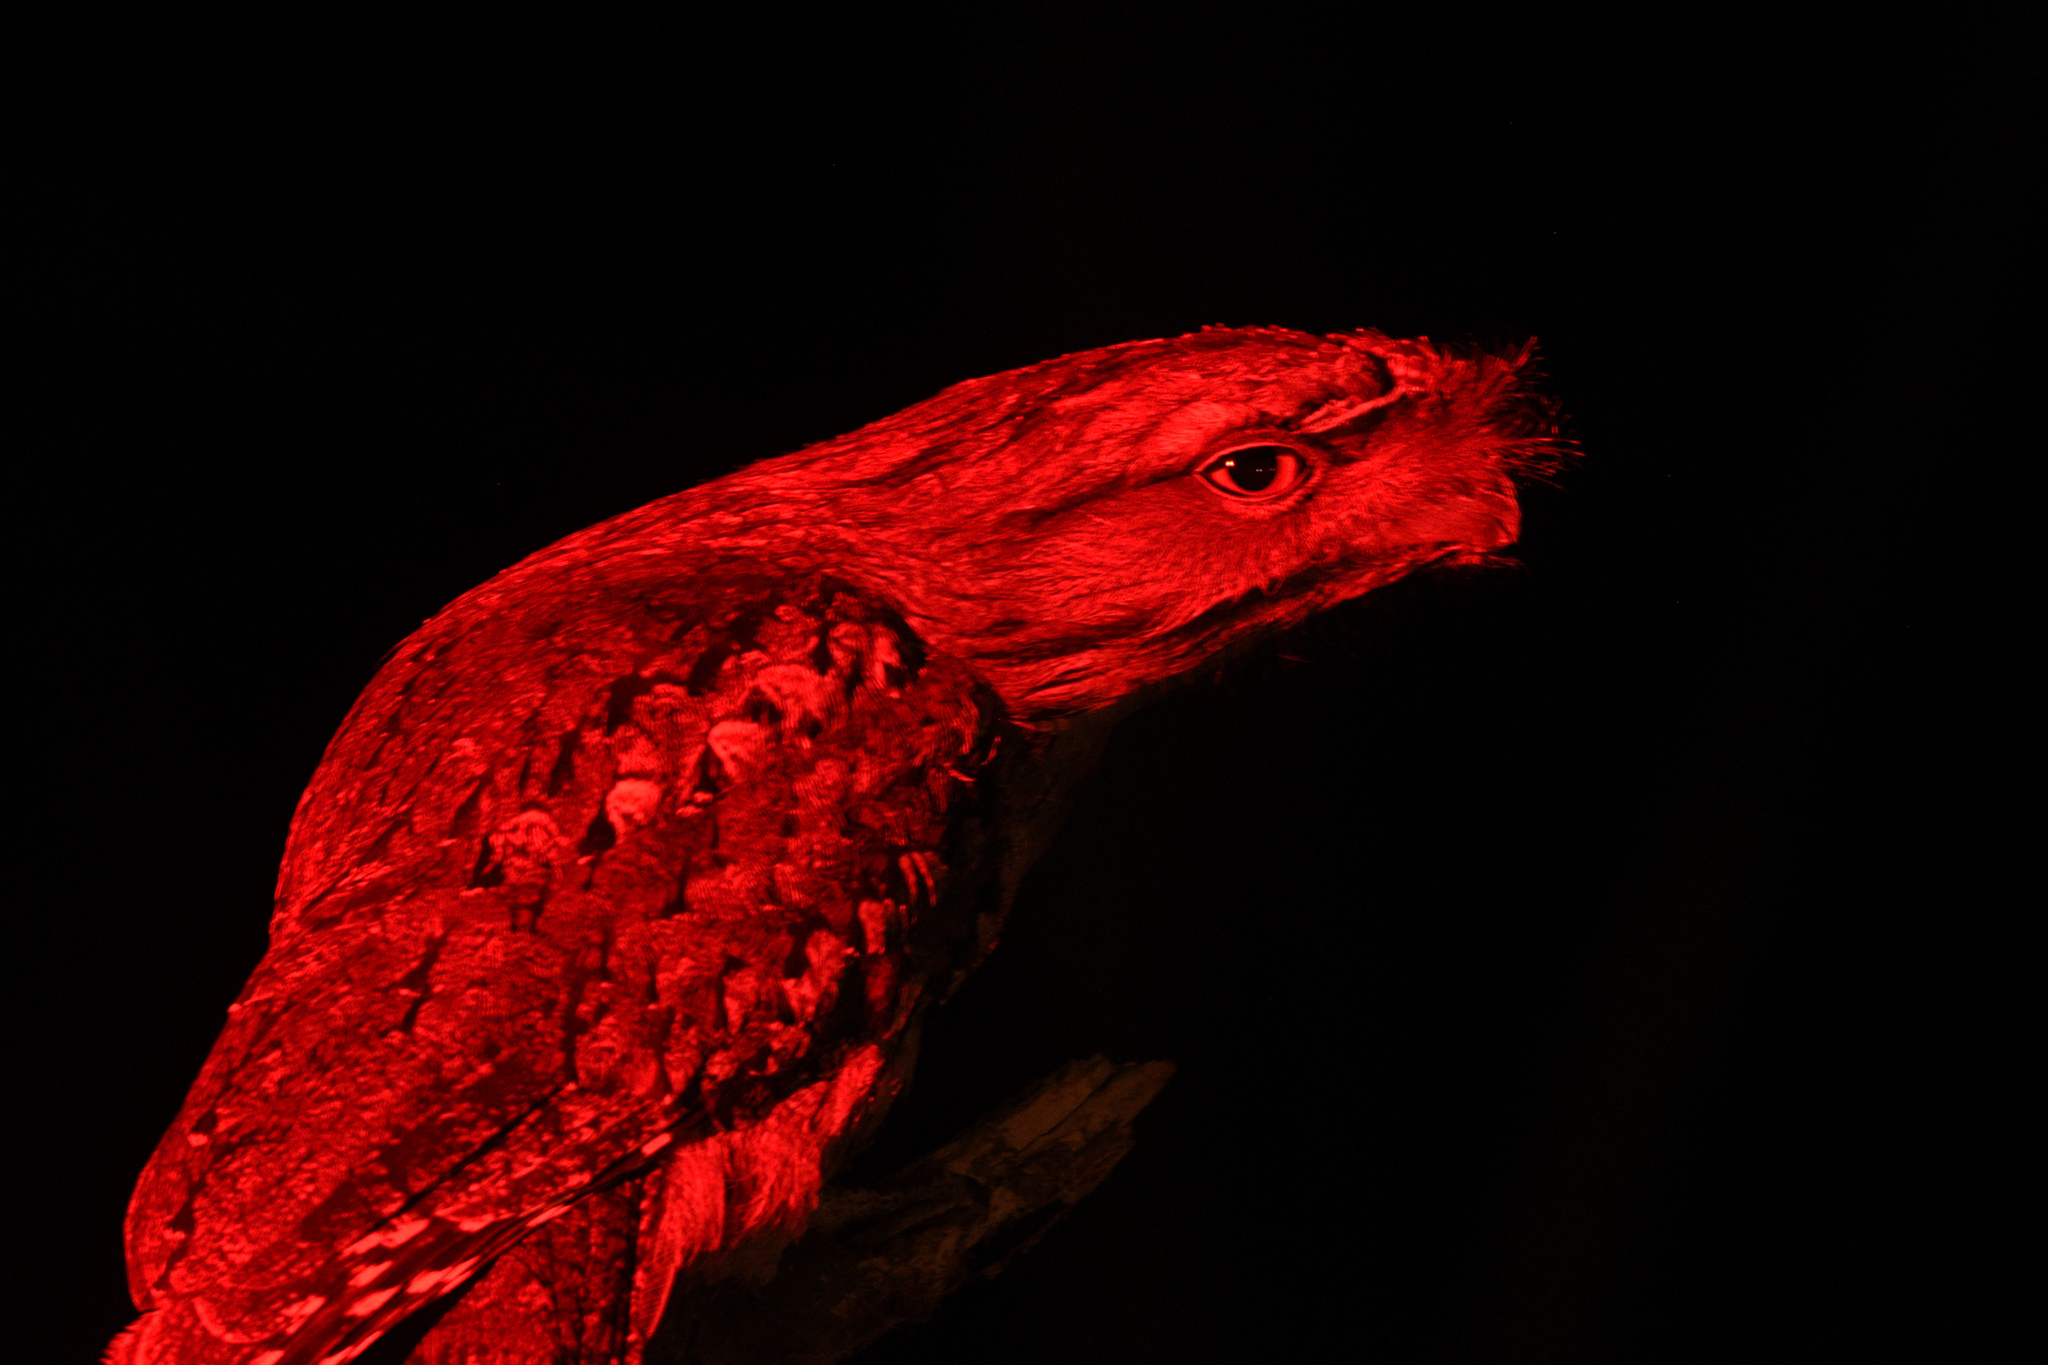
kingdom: Animalia
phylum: Chordata
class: Aves
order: Caprimulgiformes
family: Podargidae
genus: Podargus
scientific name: Podargus strigoides
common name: Tawny frogmouth
